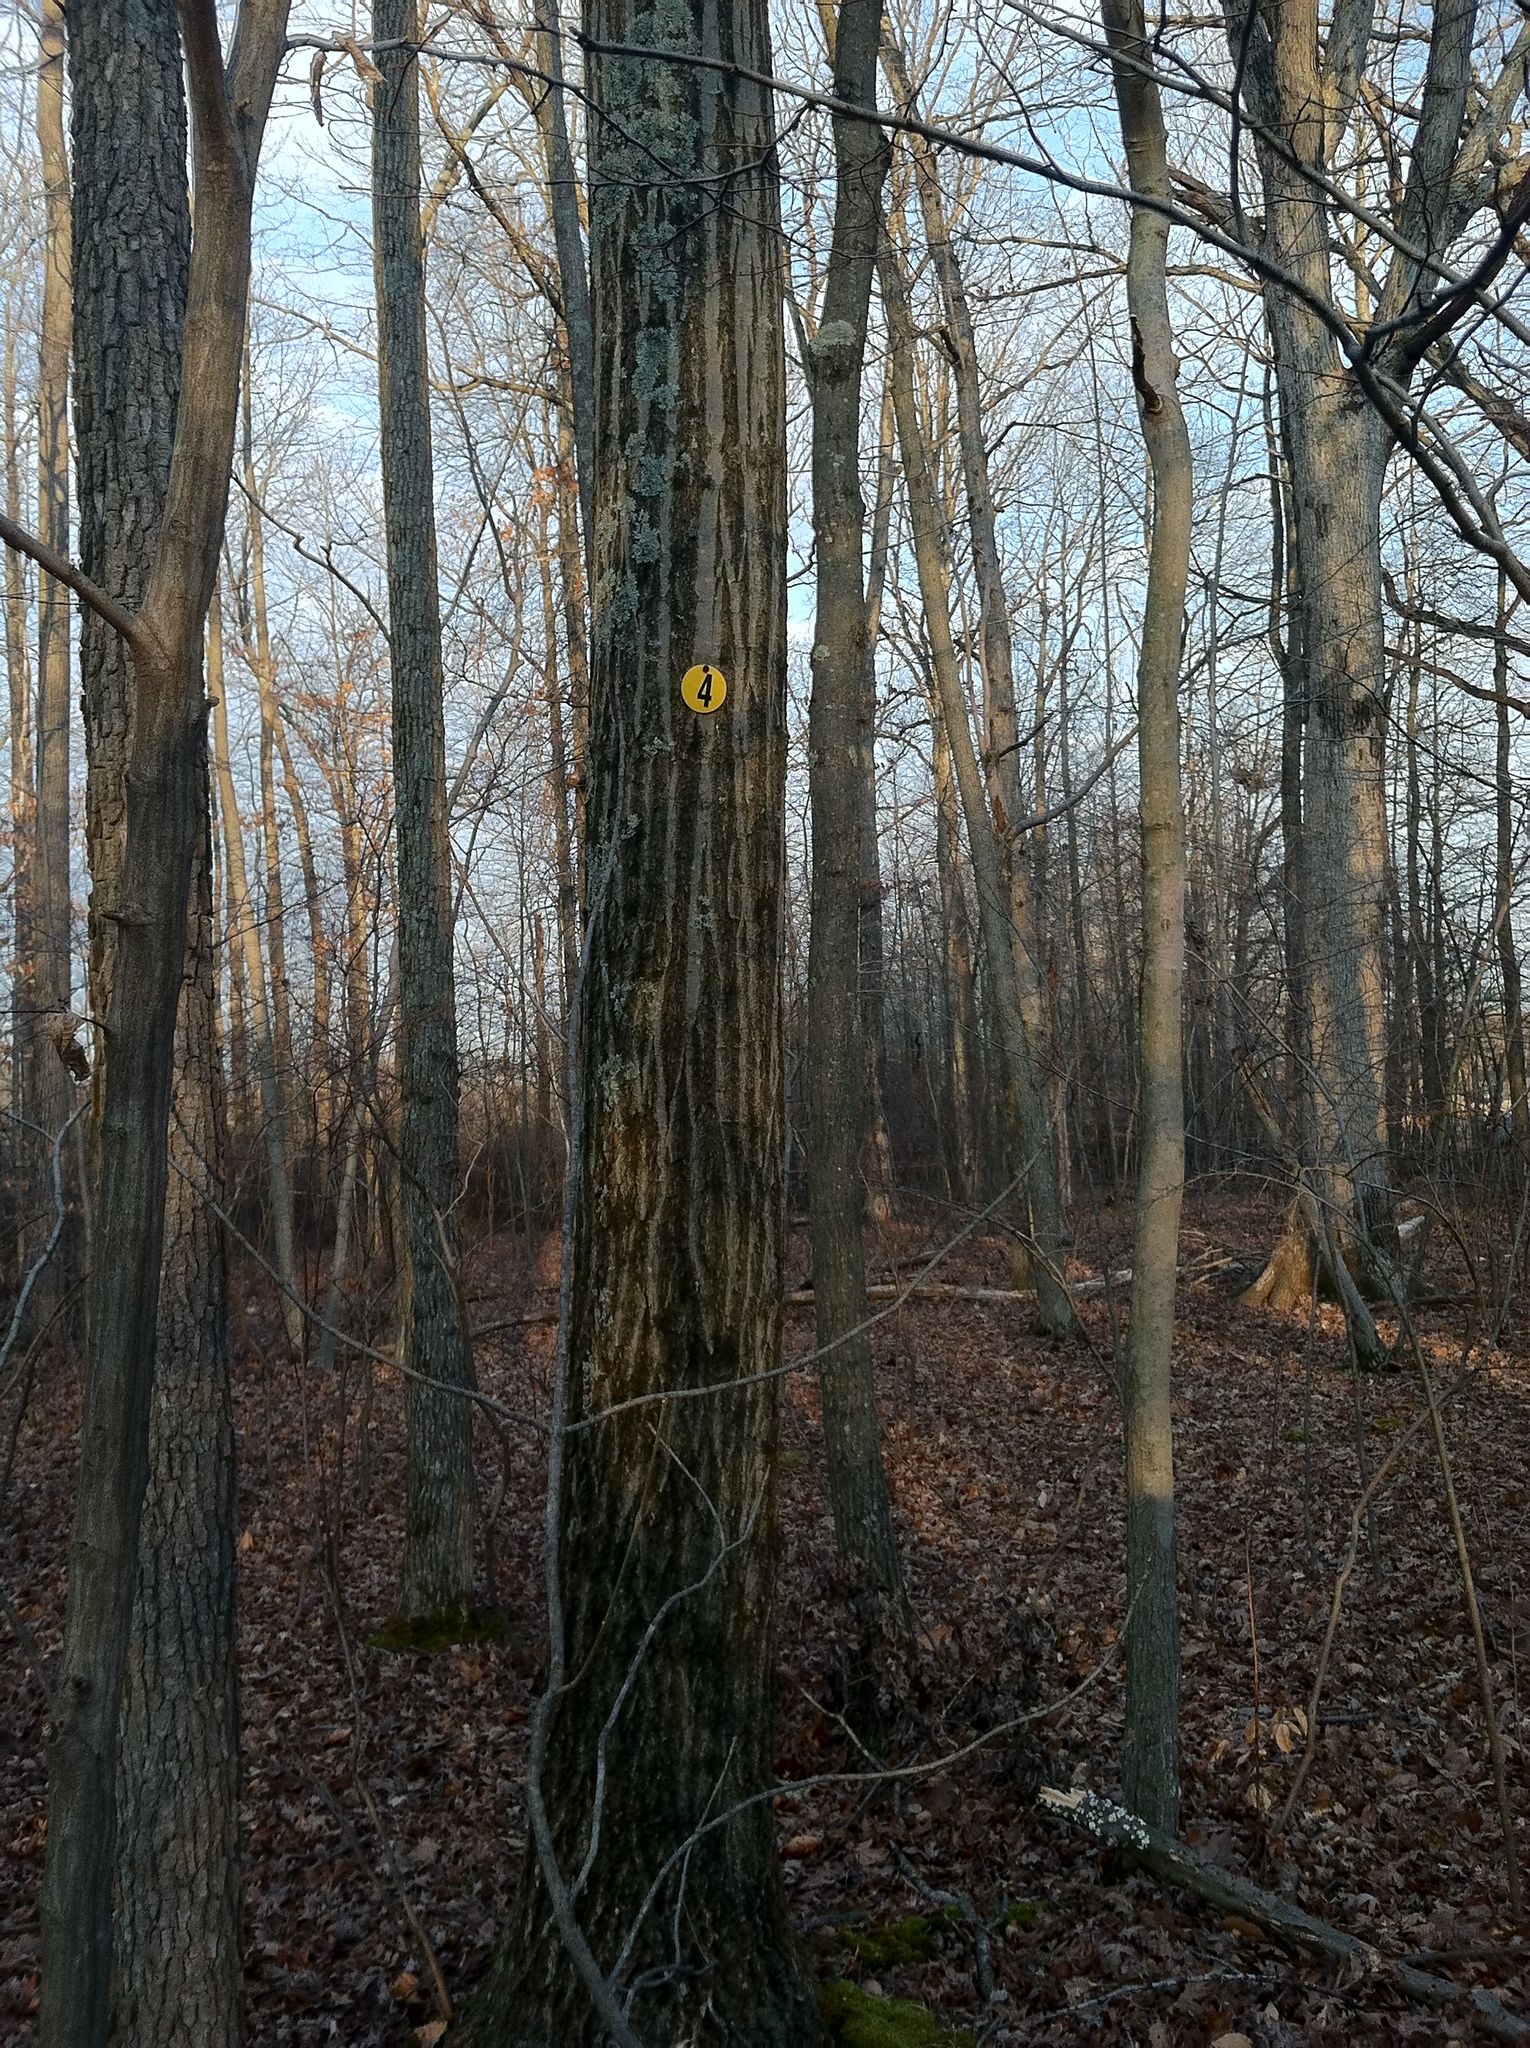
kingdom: Plantae
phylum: Tracheophyta
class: Magnoliopsida
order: Fagales
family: Fagaceae
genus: Quercus
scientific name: Quercus rubra
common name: Red oak
